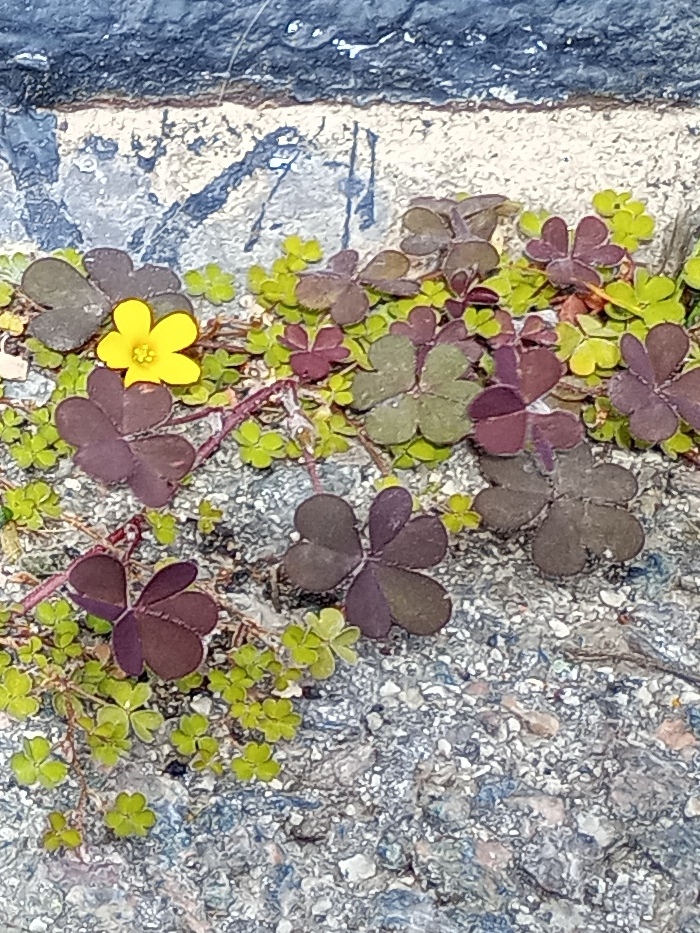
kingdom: Plantae
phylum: Tracheophyta
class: Magnoliopsida
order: Oxalidales
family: Oxalidaceae
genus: Oxalis
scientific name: Oxalis corniculata
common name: Procumbent yellow-sorrel
